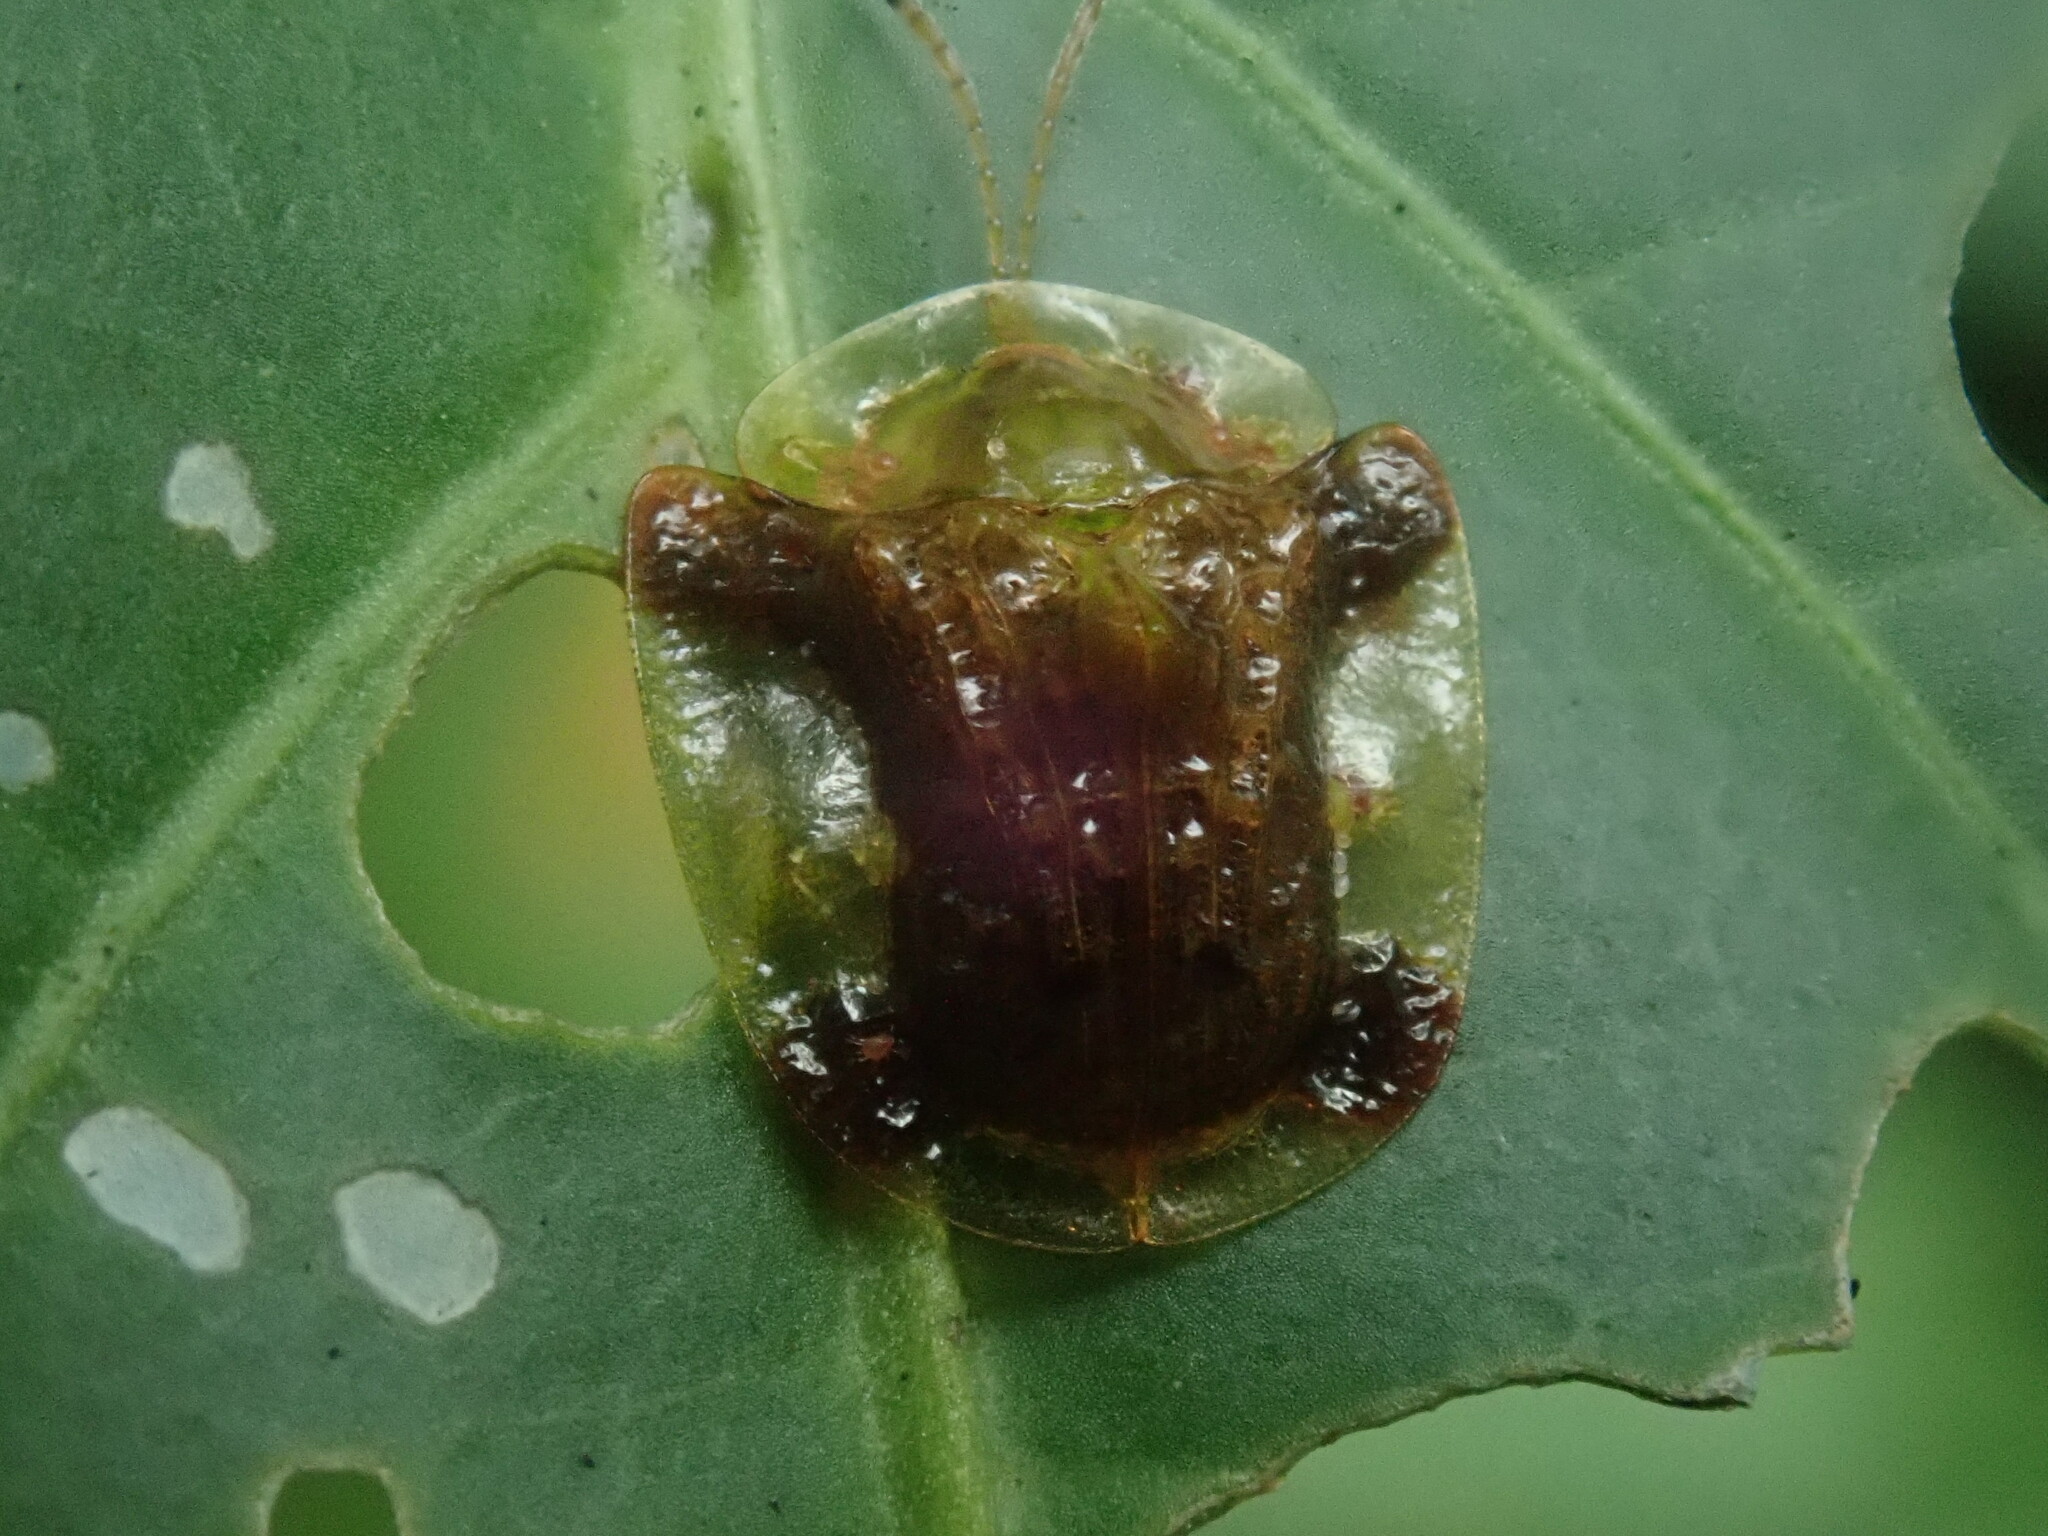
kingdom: Animalia
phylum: Arthropoda
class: Insecta
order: Coleoptera
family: Chrysomelidae
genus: Helocassis
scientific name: Helocassis testudinaria
